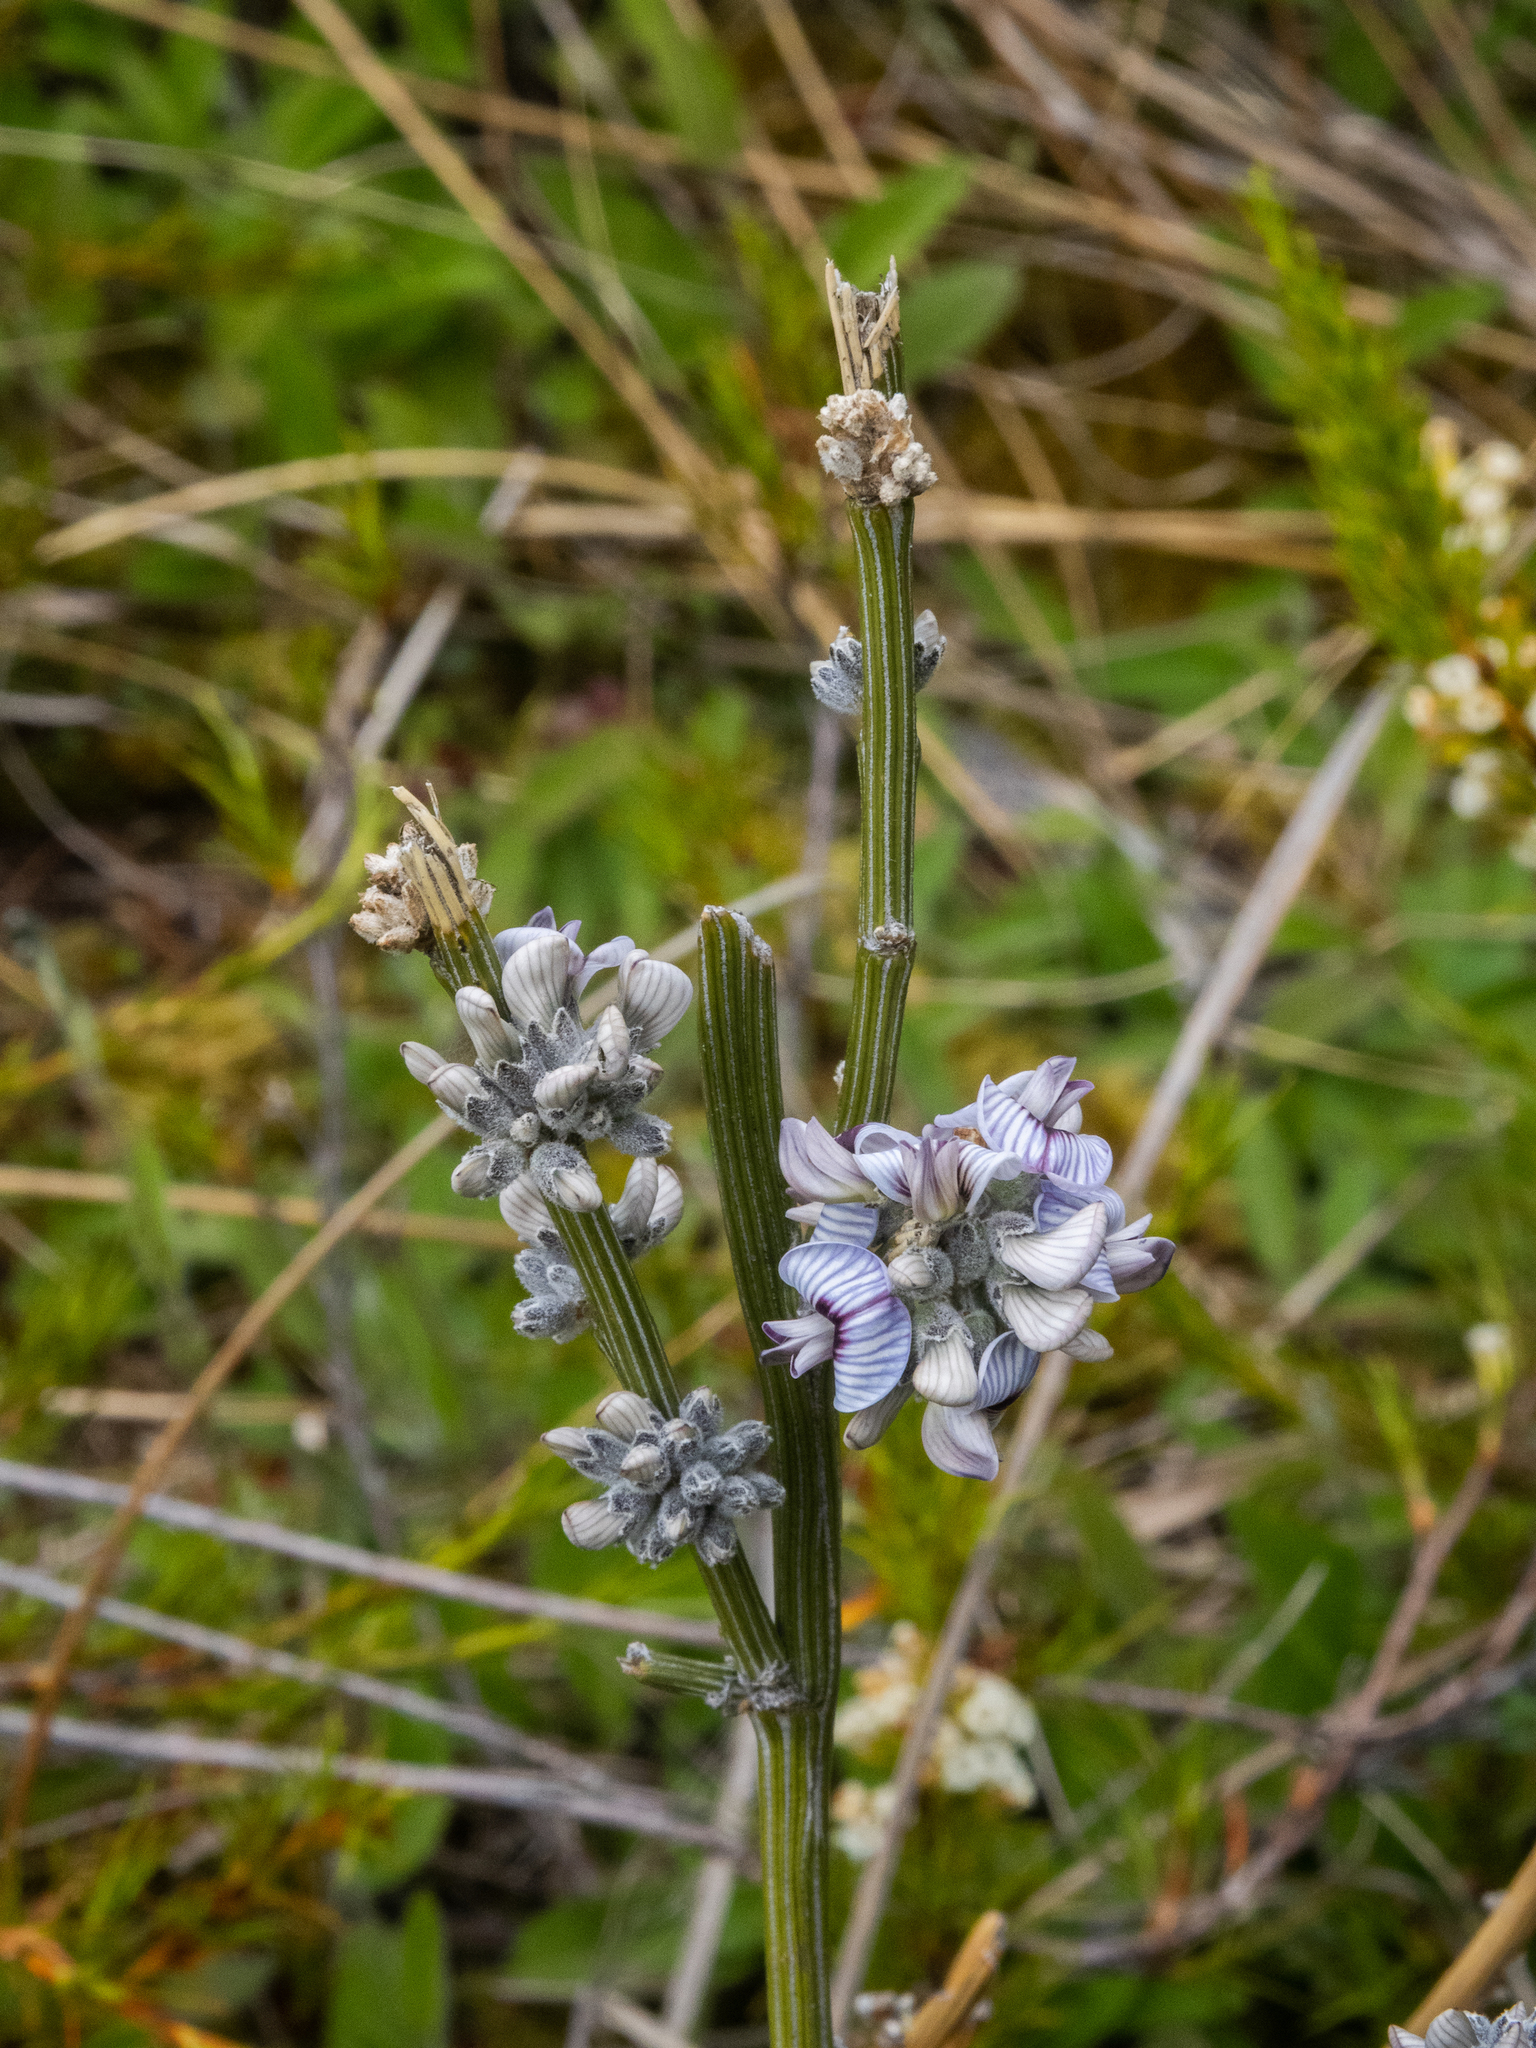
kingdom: Plantae
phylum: Tracheophyta
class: Magnoliopsida
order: Fabales
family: Fabaceae
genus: Carmichaelia
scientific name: Carmichaelia crassicaulis
